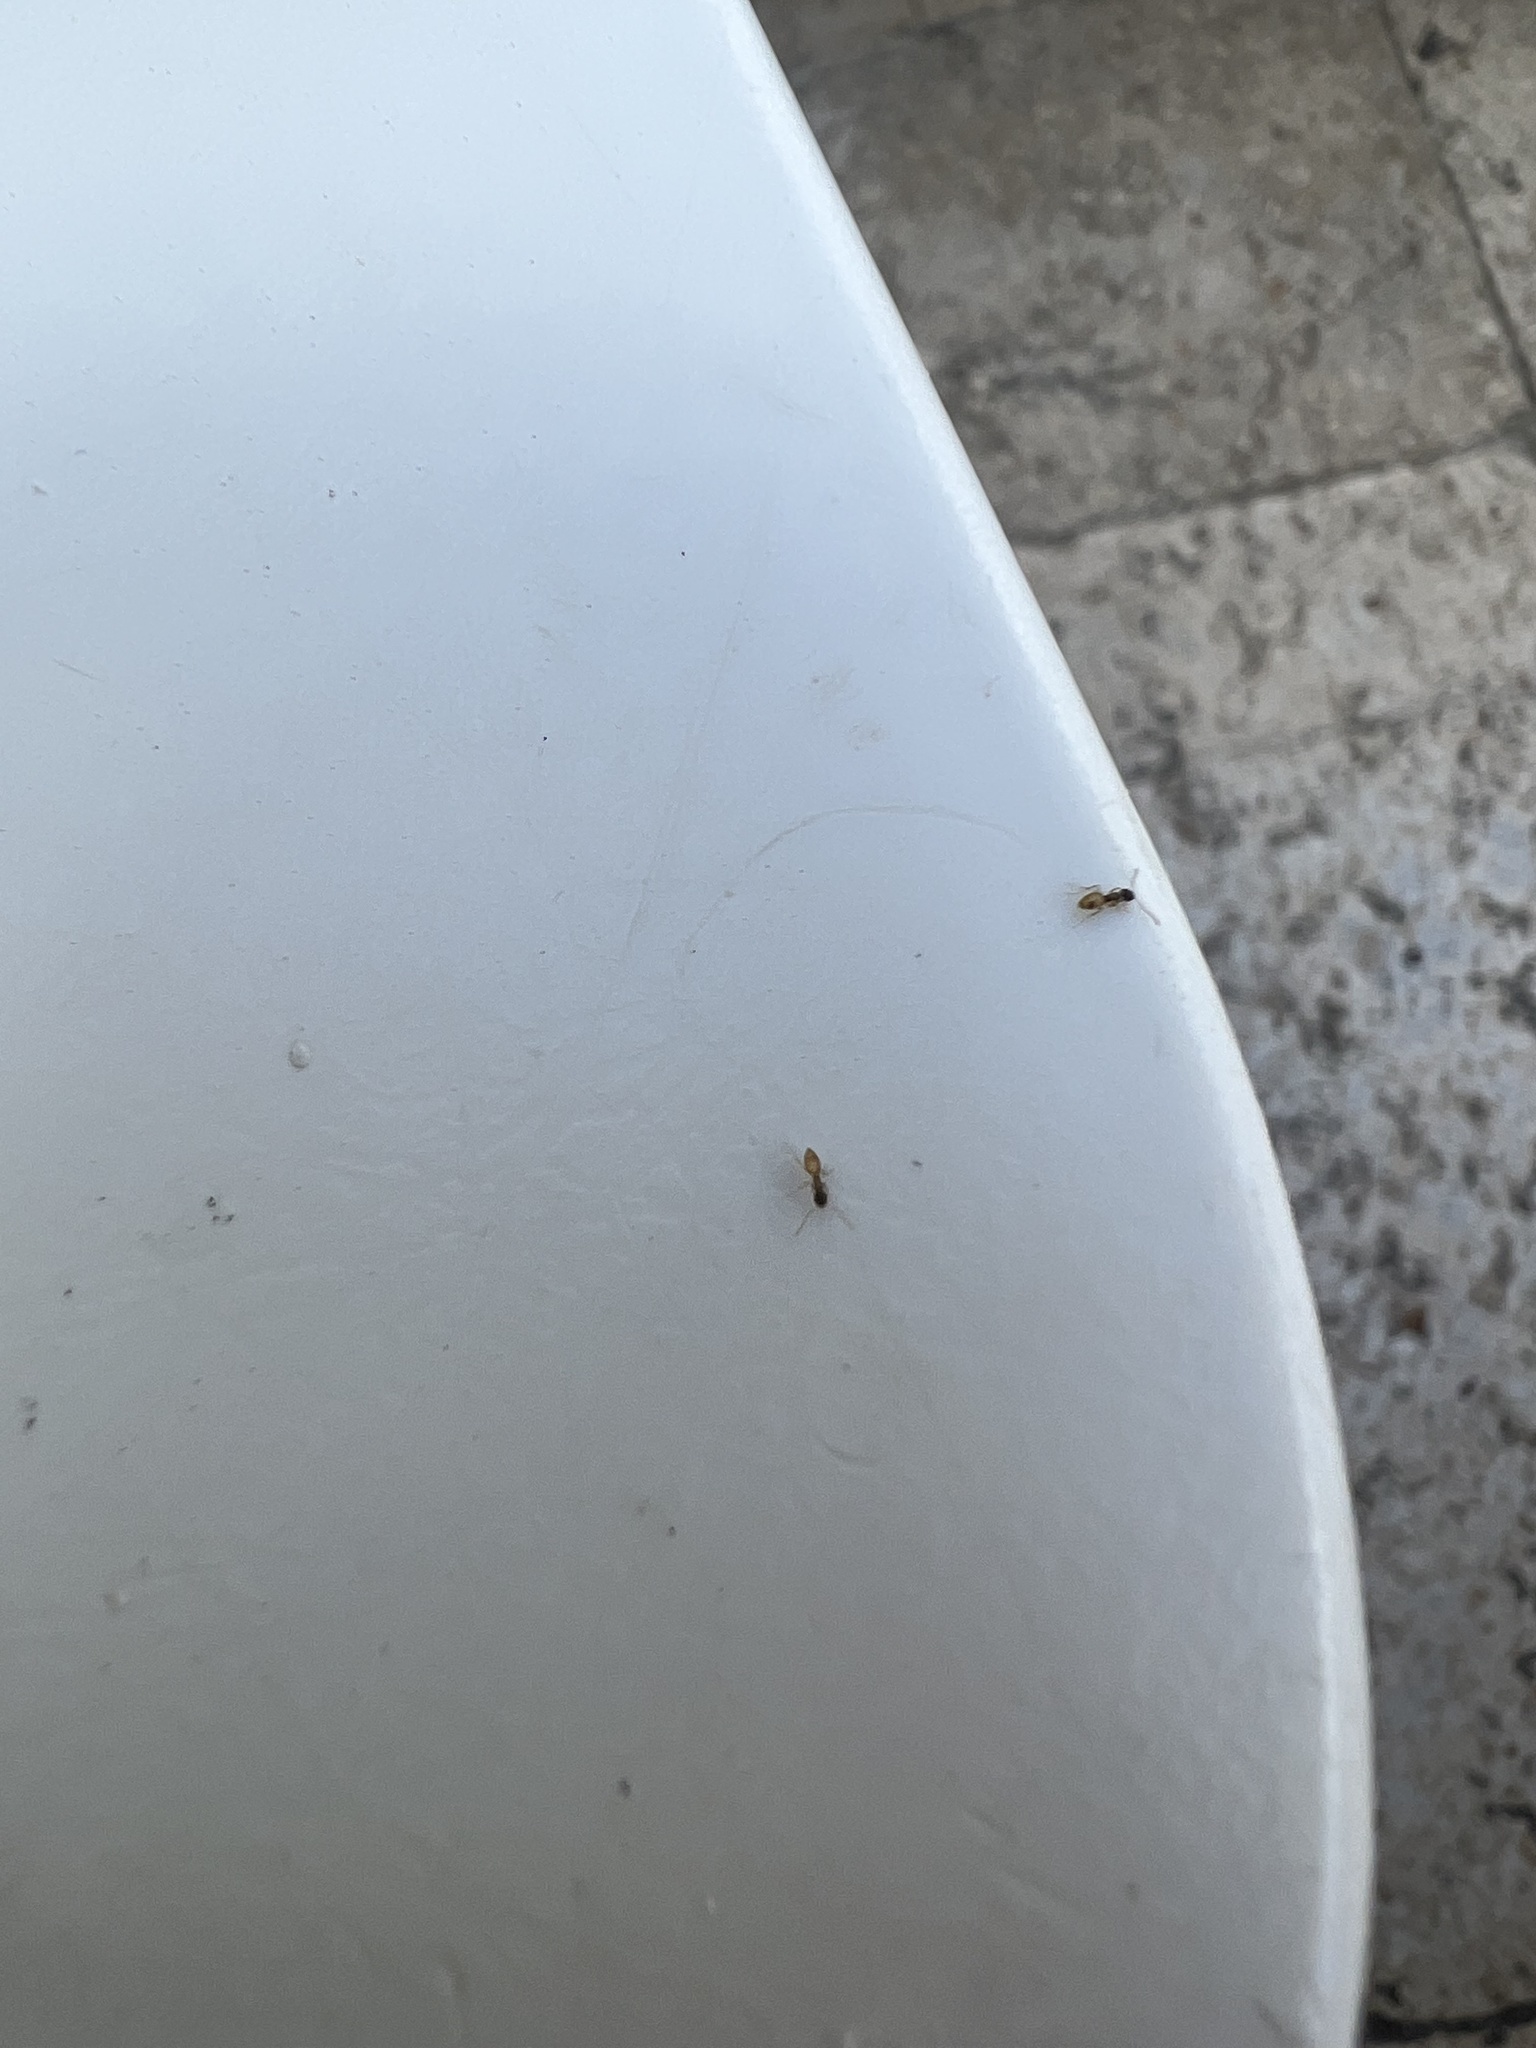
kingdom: Animalia
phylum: Arthropoda
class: Insecta
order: Hymenoptera
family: Formicidae
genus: Tapinoma
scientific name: Tapinoma melanocephalum
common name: Ghost ant
